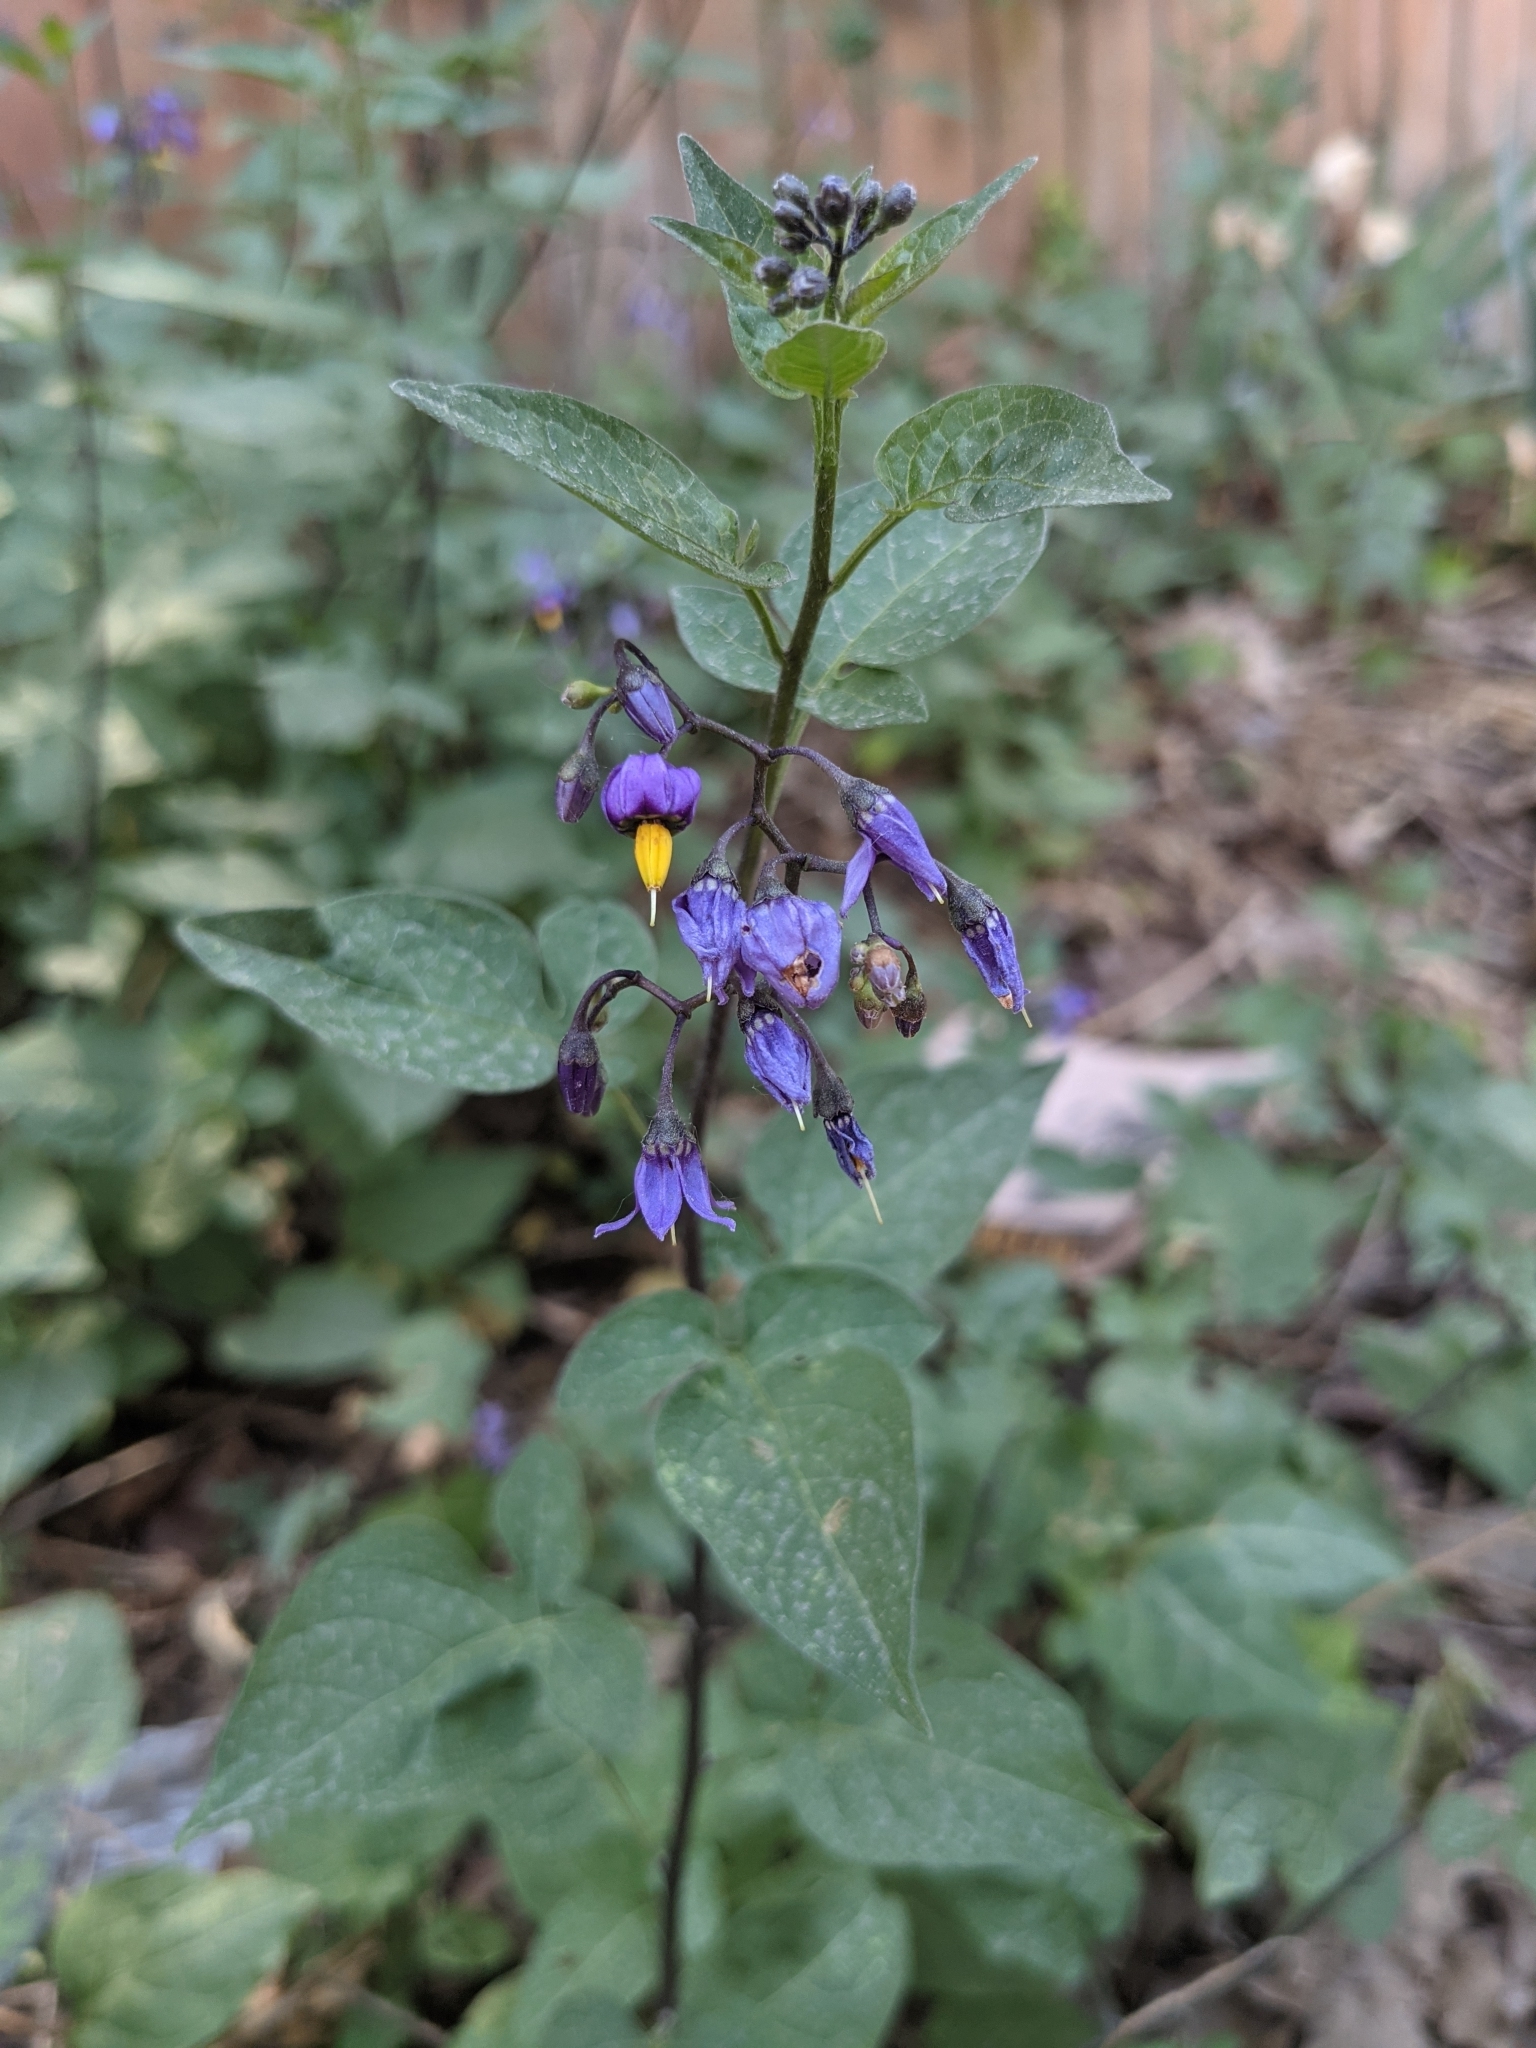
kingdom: Plantae
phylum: Tracheophyta
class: Magnoliopsida
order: Solanales
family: Solanaceae
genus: Solanum
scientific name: Solanum dulcamara
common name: Climbing nightshade
